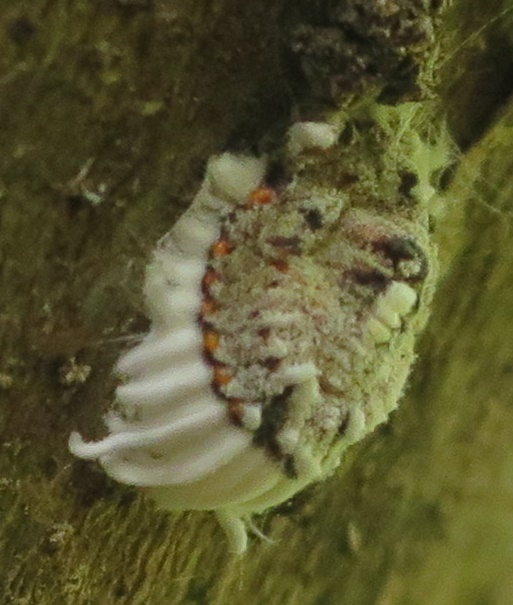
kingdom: Animalia
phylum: Arthropoda
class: Insecta
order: Hemiptera
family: Margarodidae
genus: Icerya
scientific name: Icerya purchasi
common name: Cottony cushion scale
